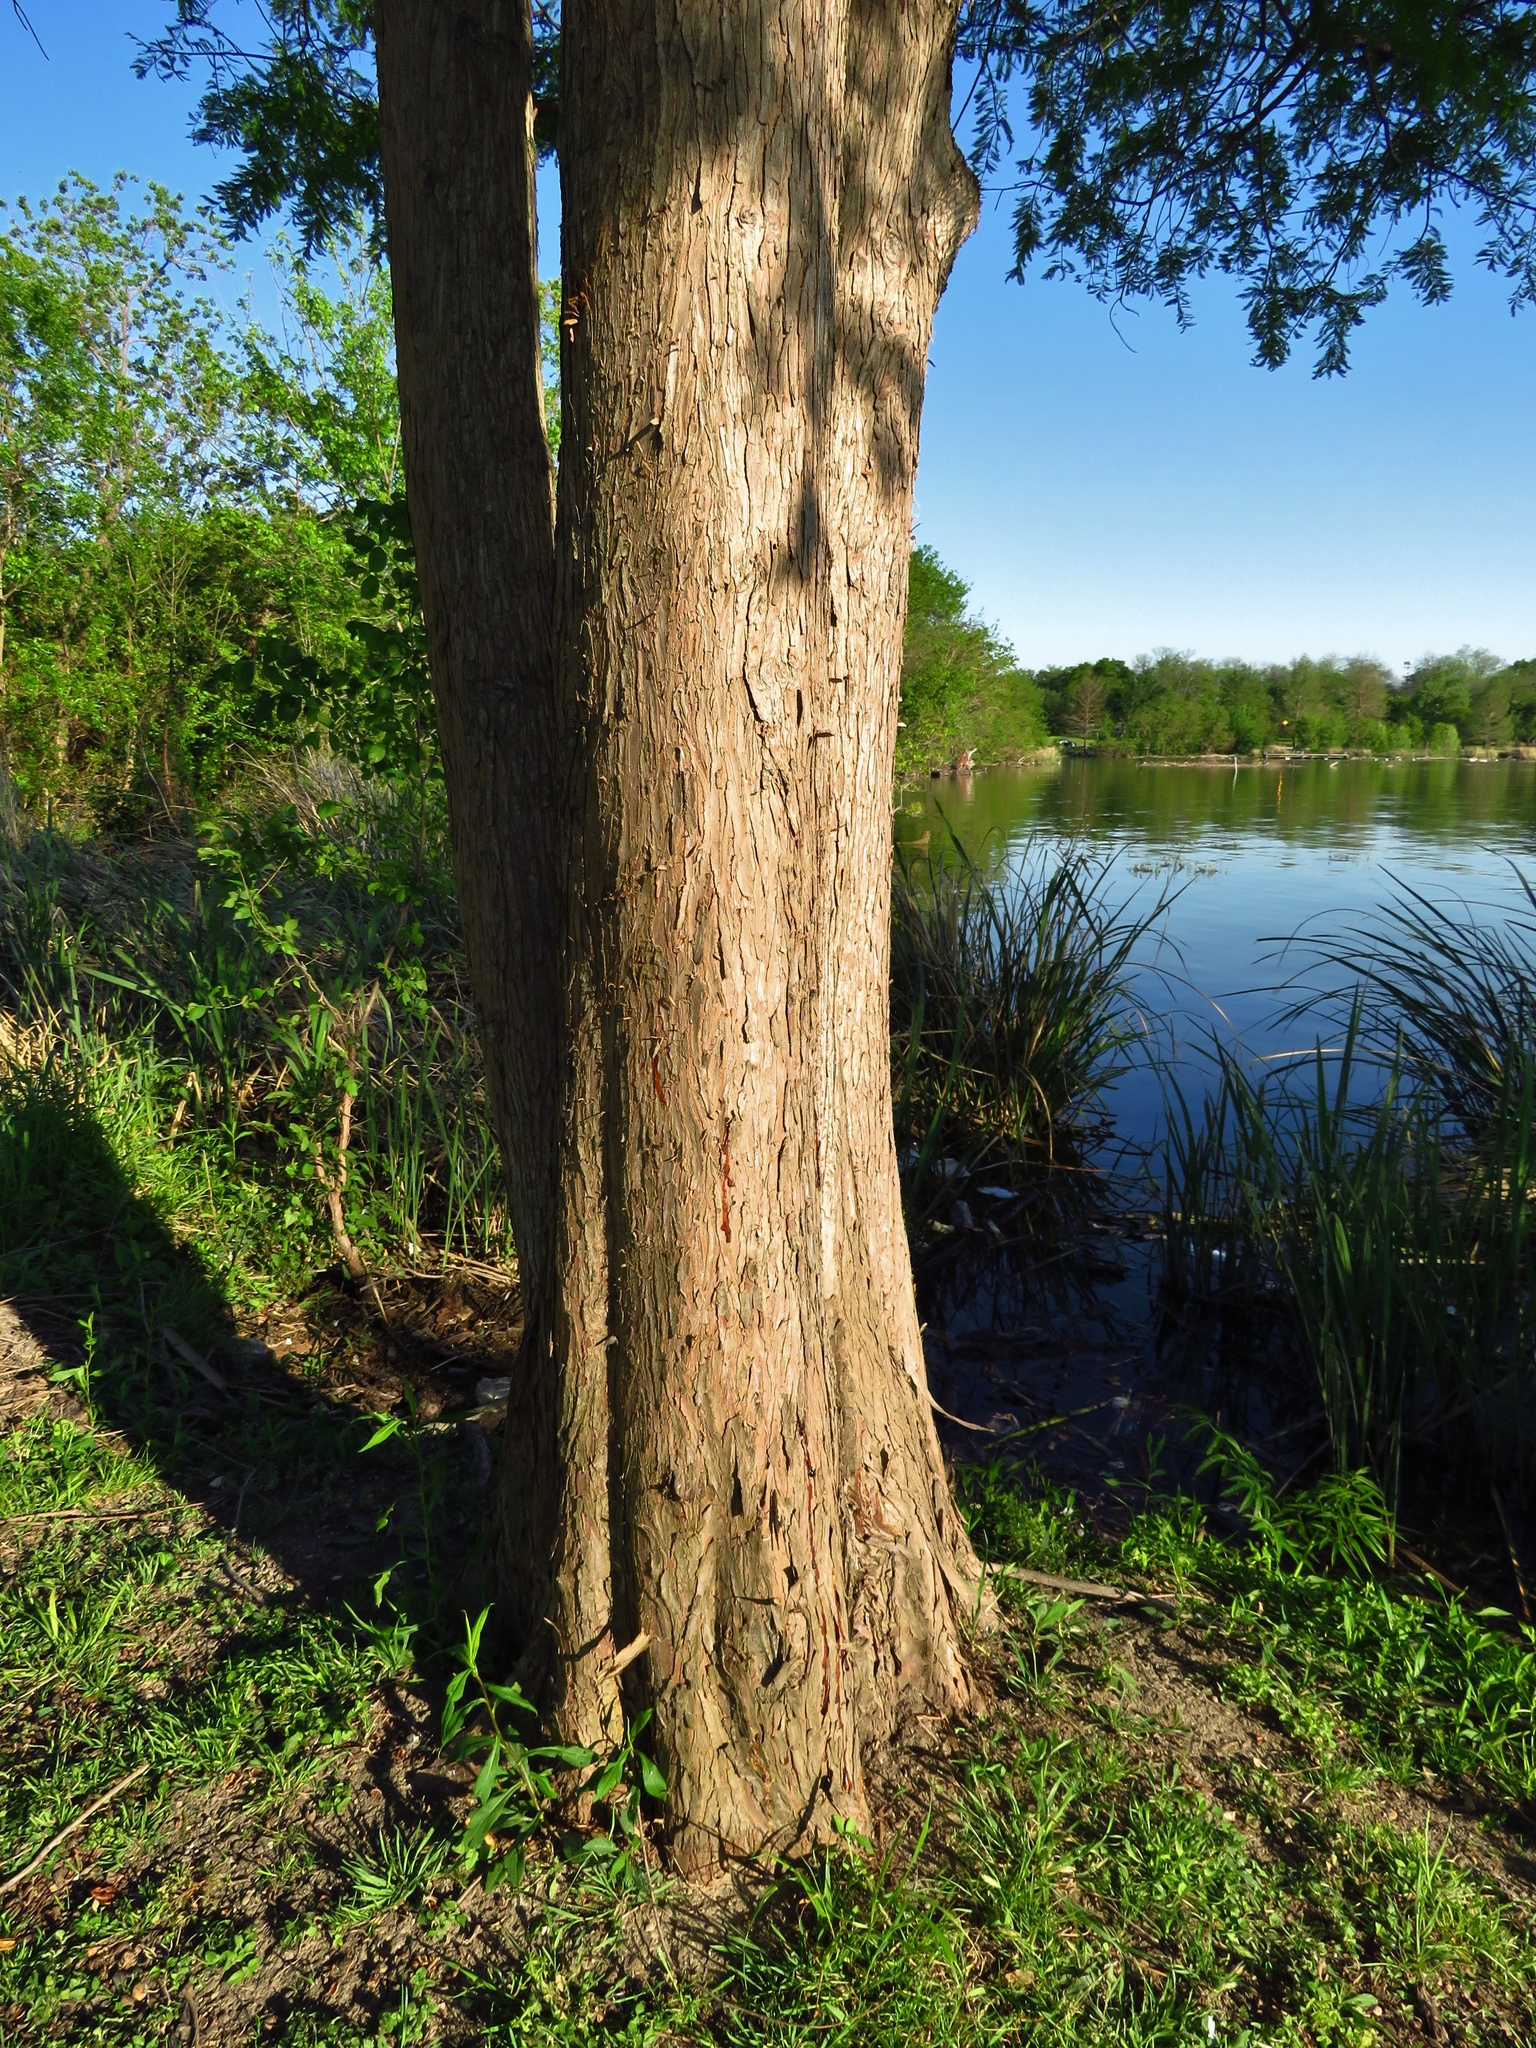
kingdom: Plantae
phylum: Tracheophyta
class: Pinopsida
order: Pinales
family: Cupressaceae
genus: Taxodium
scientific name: Taxodium distichum
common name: Bald cypress
